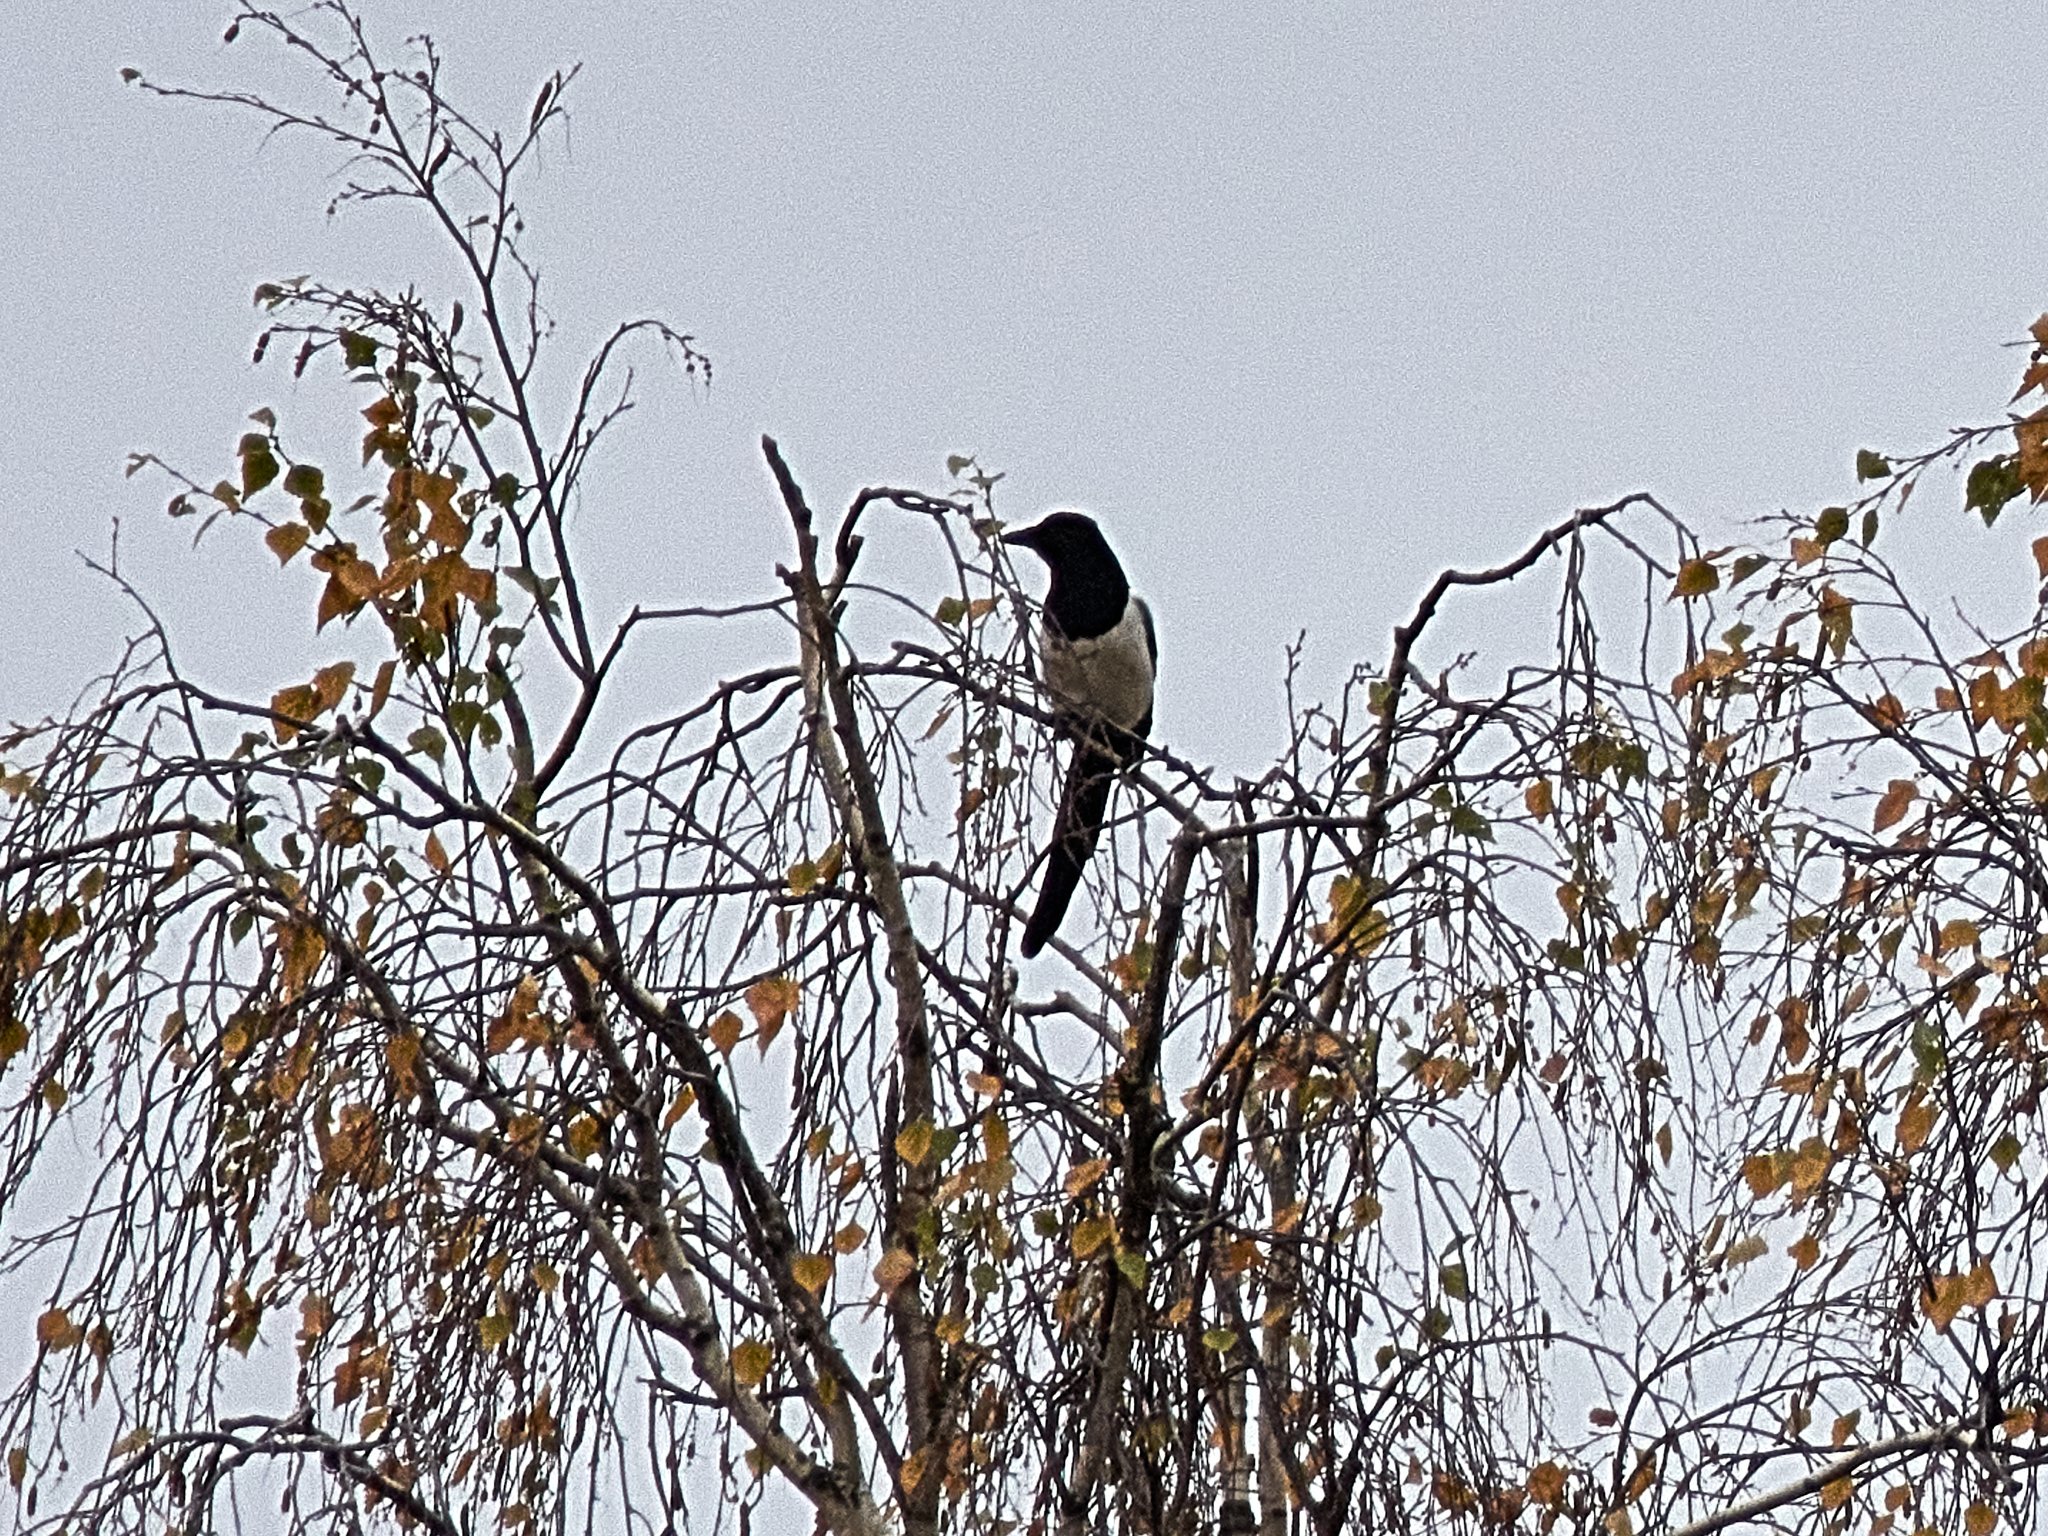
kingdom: Animalia
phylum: Chordata
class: Aves
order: Passeriformes
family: Corvidae
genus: Pica
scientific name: Pica pica
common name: Eurasian magpie
